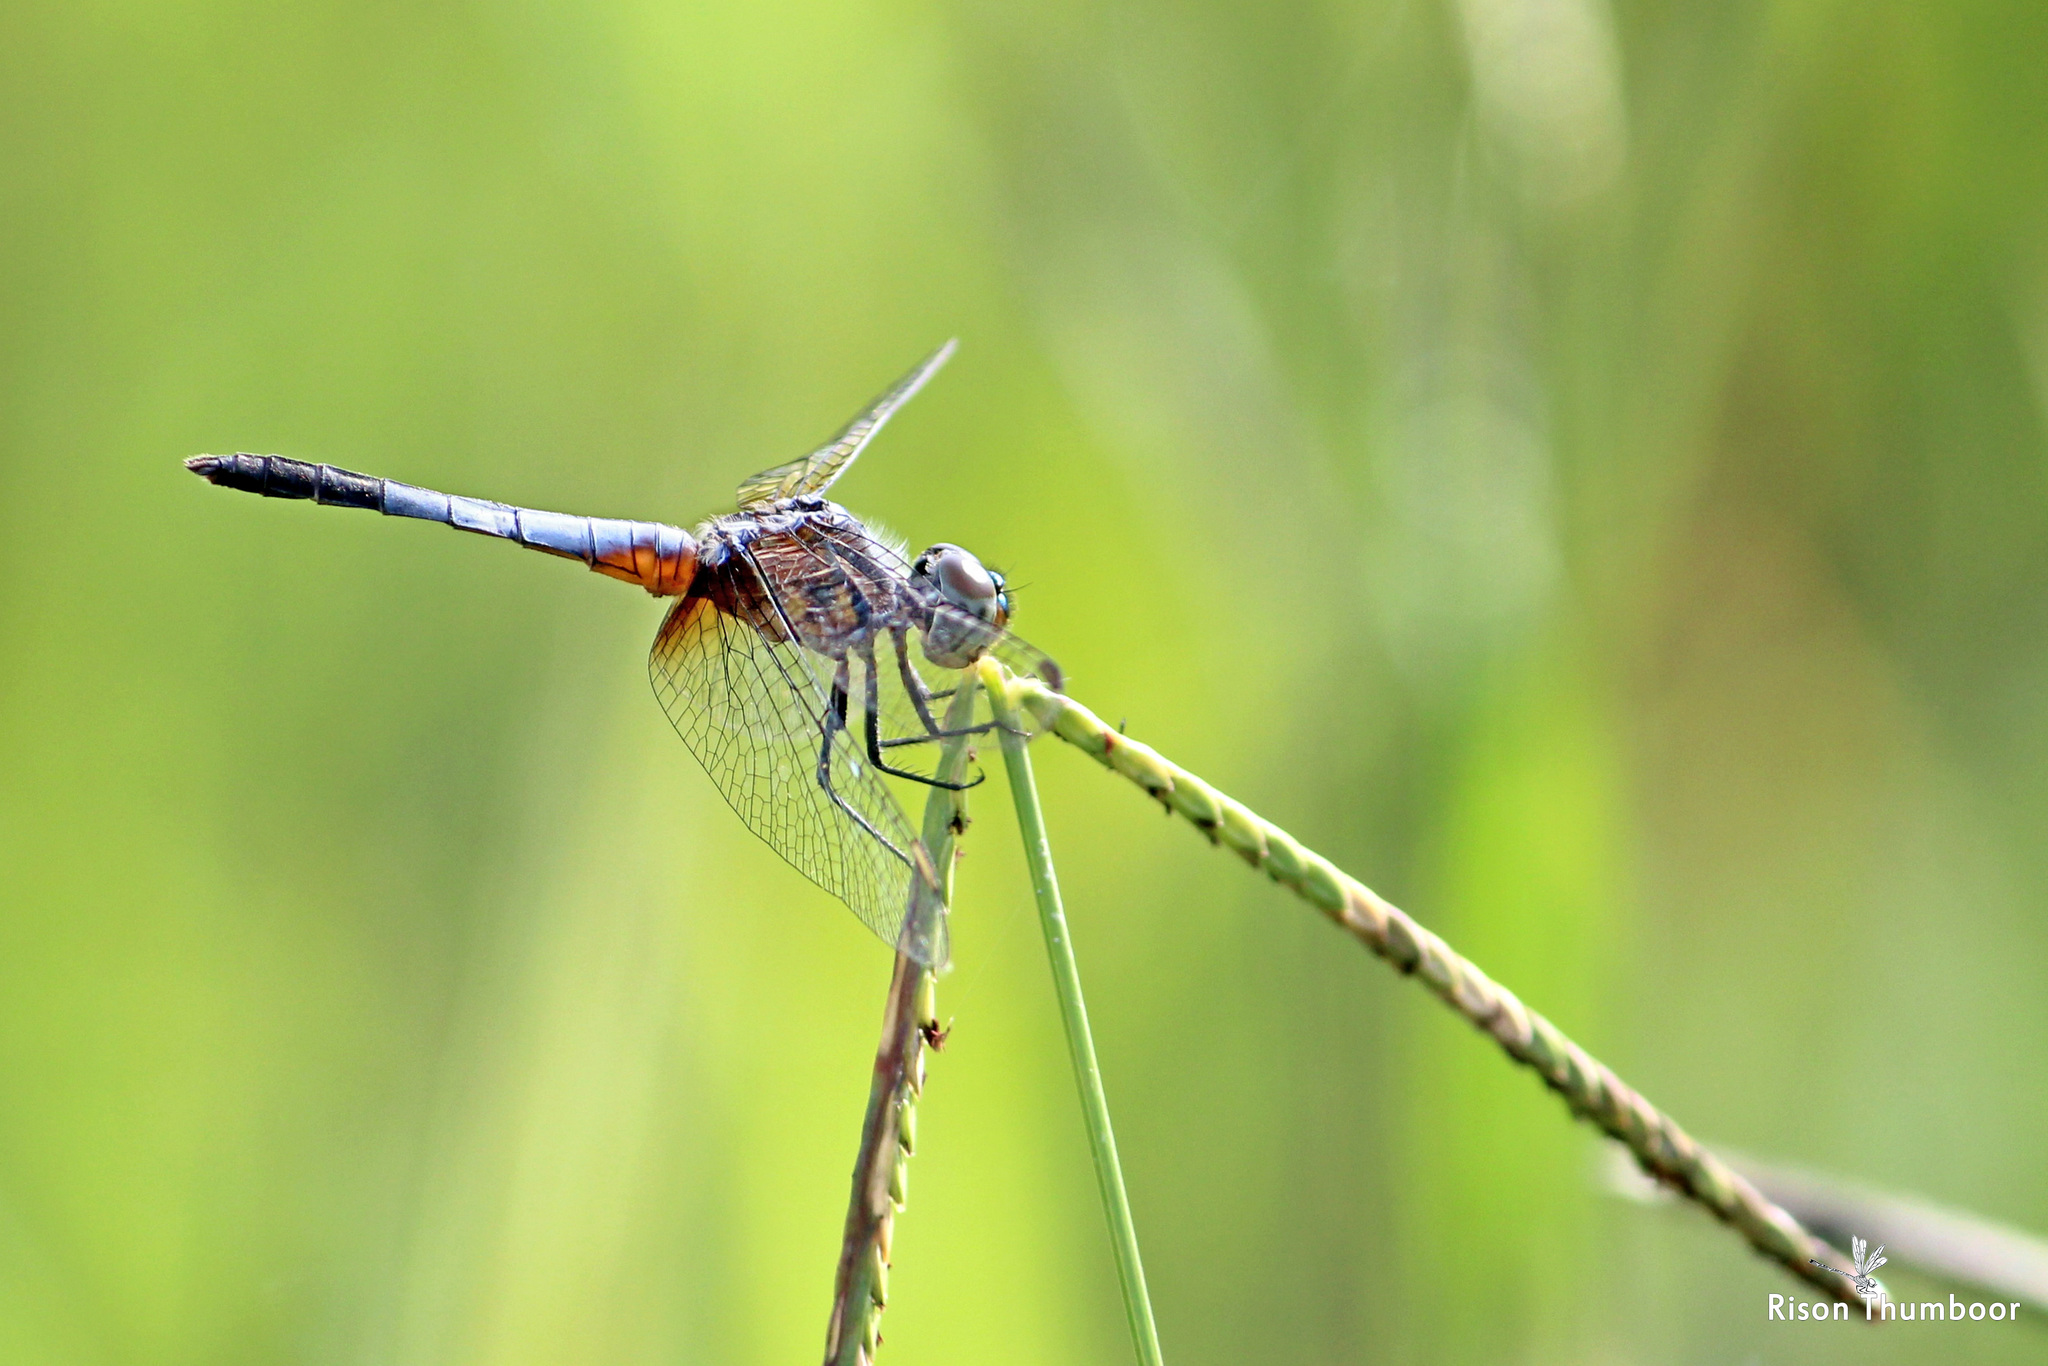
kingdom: Animalia
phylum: Arthropoda
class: Insecta
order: Odonata
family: Libellulidae
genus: Brachydiplax
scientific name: Brachydiplax chalybea
